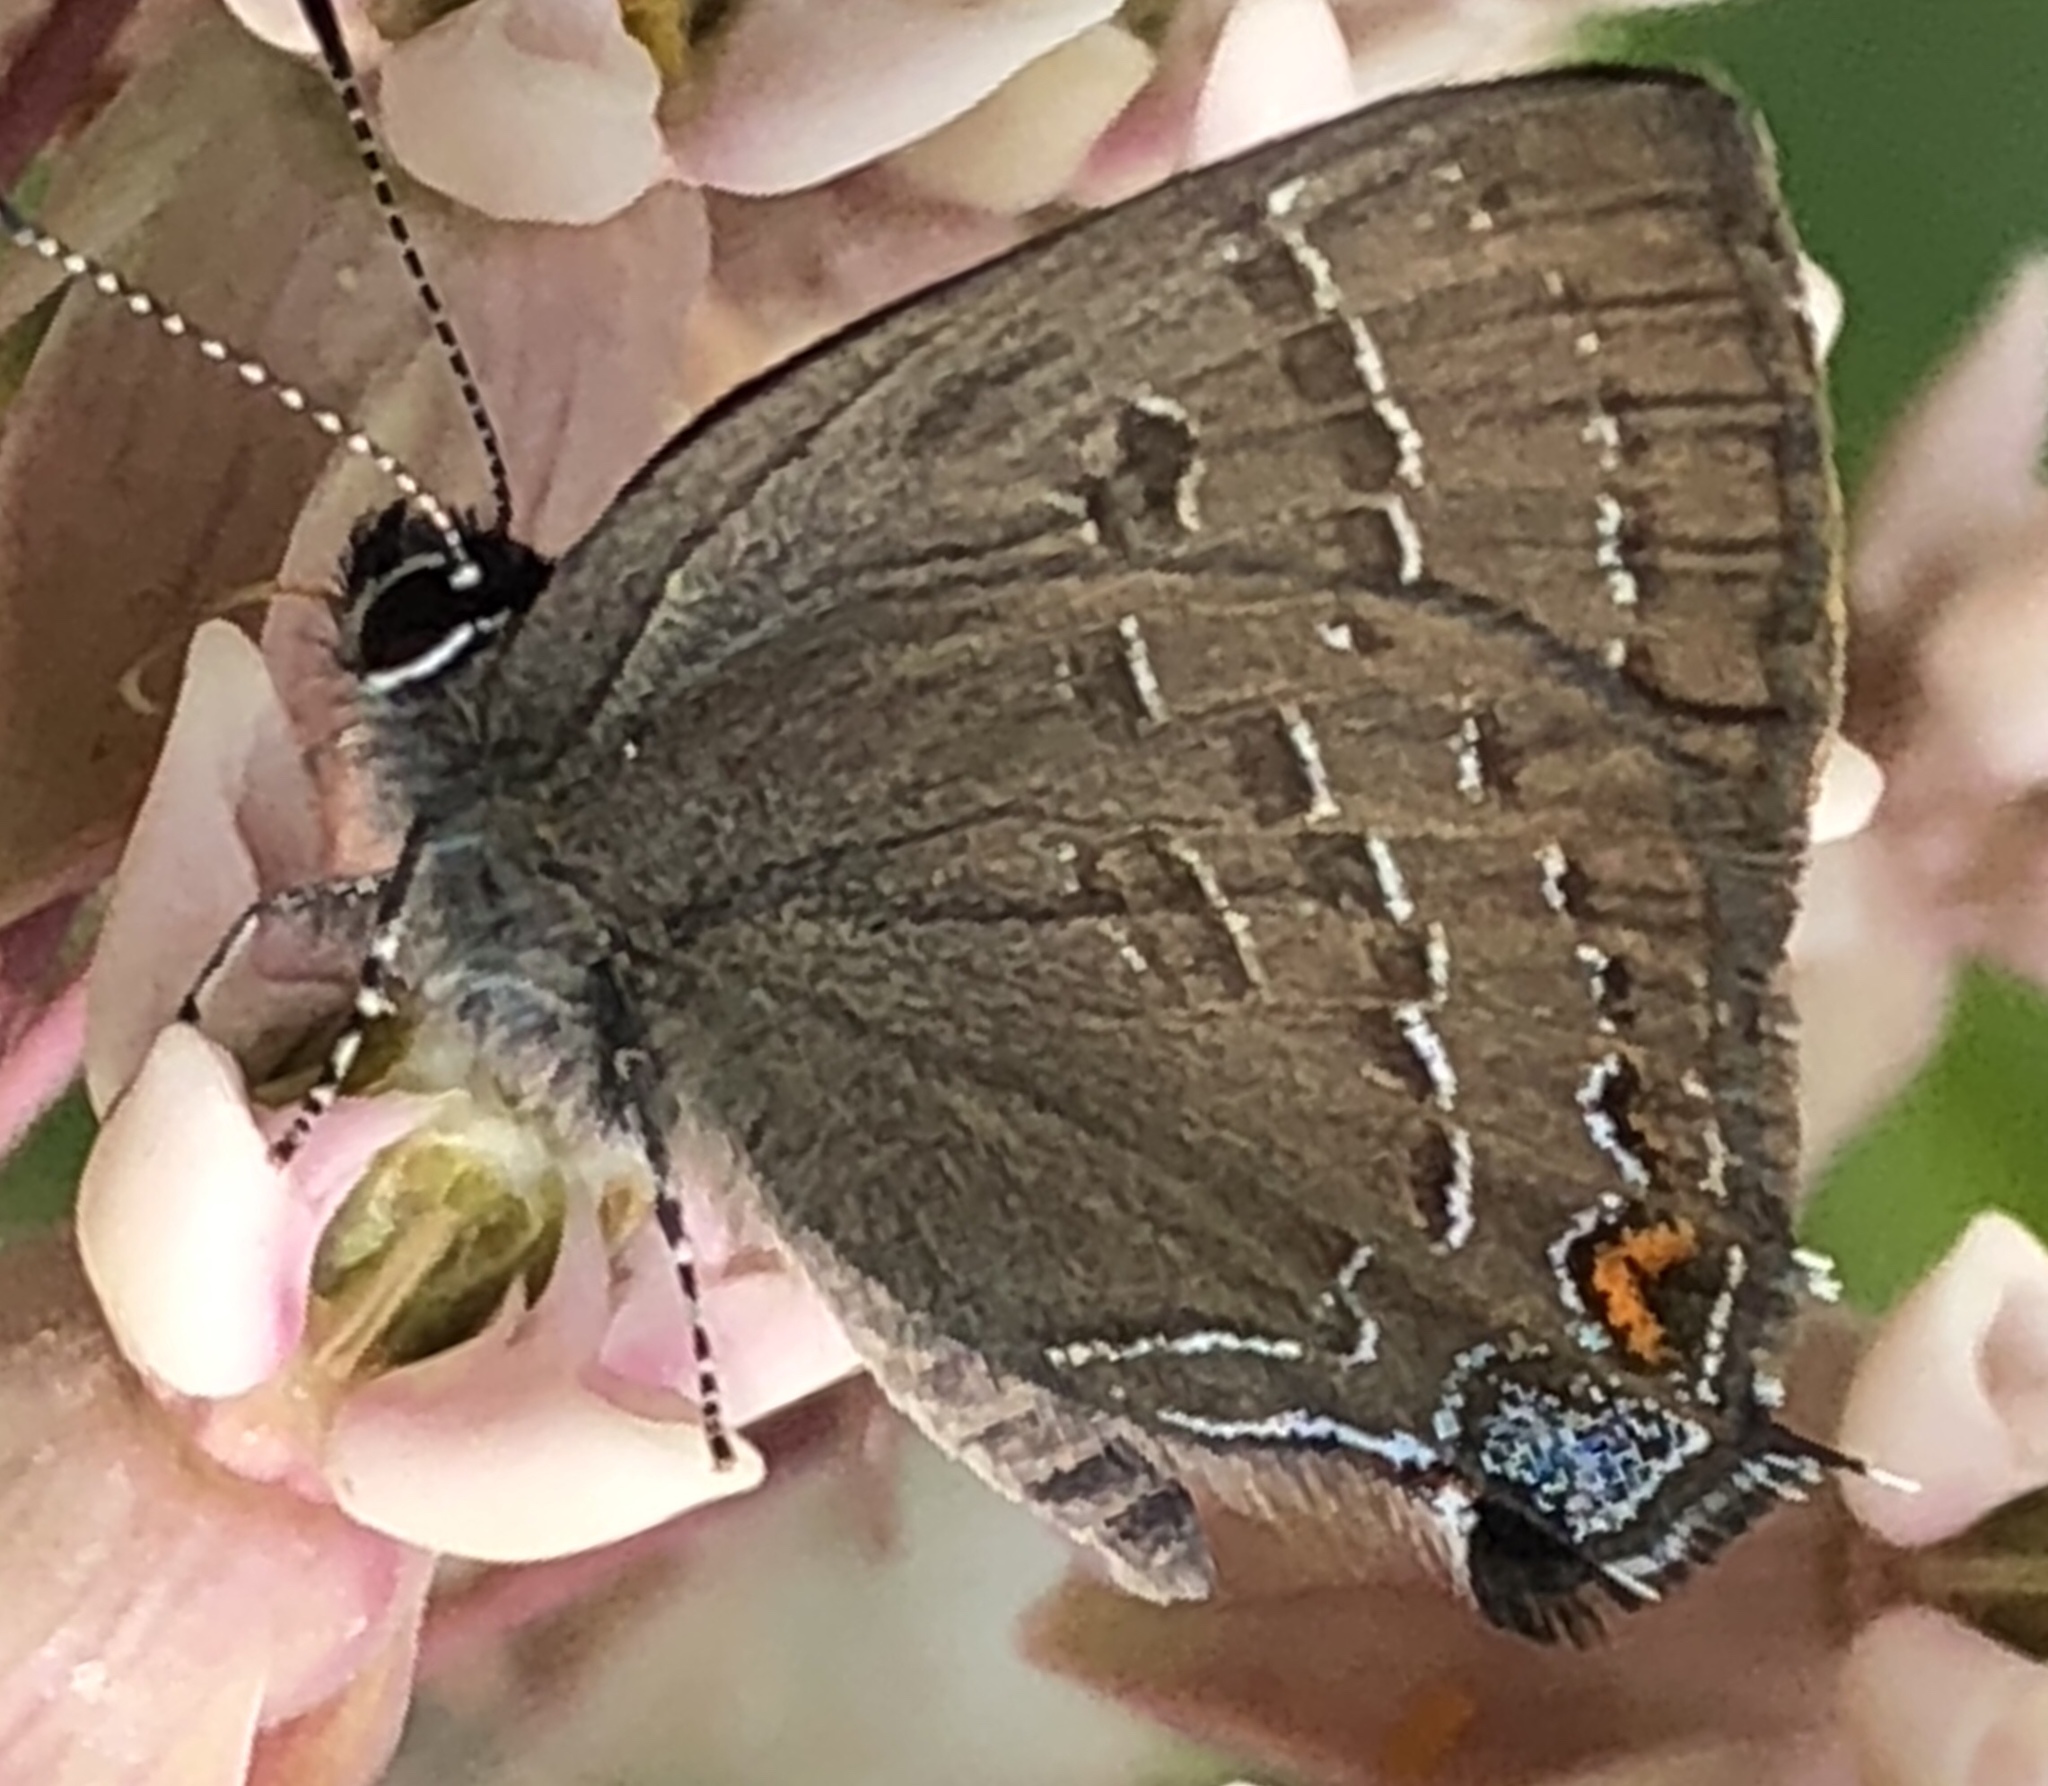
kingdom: Animalia
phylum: Arthropoda
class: Insecta
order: Lepidoptera
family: Lycaenidae
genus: Satyrium
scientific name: Satyrium calanus
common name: Banded hairstreak
